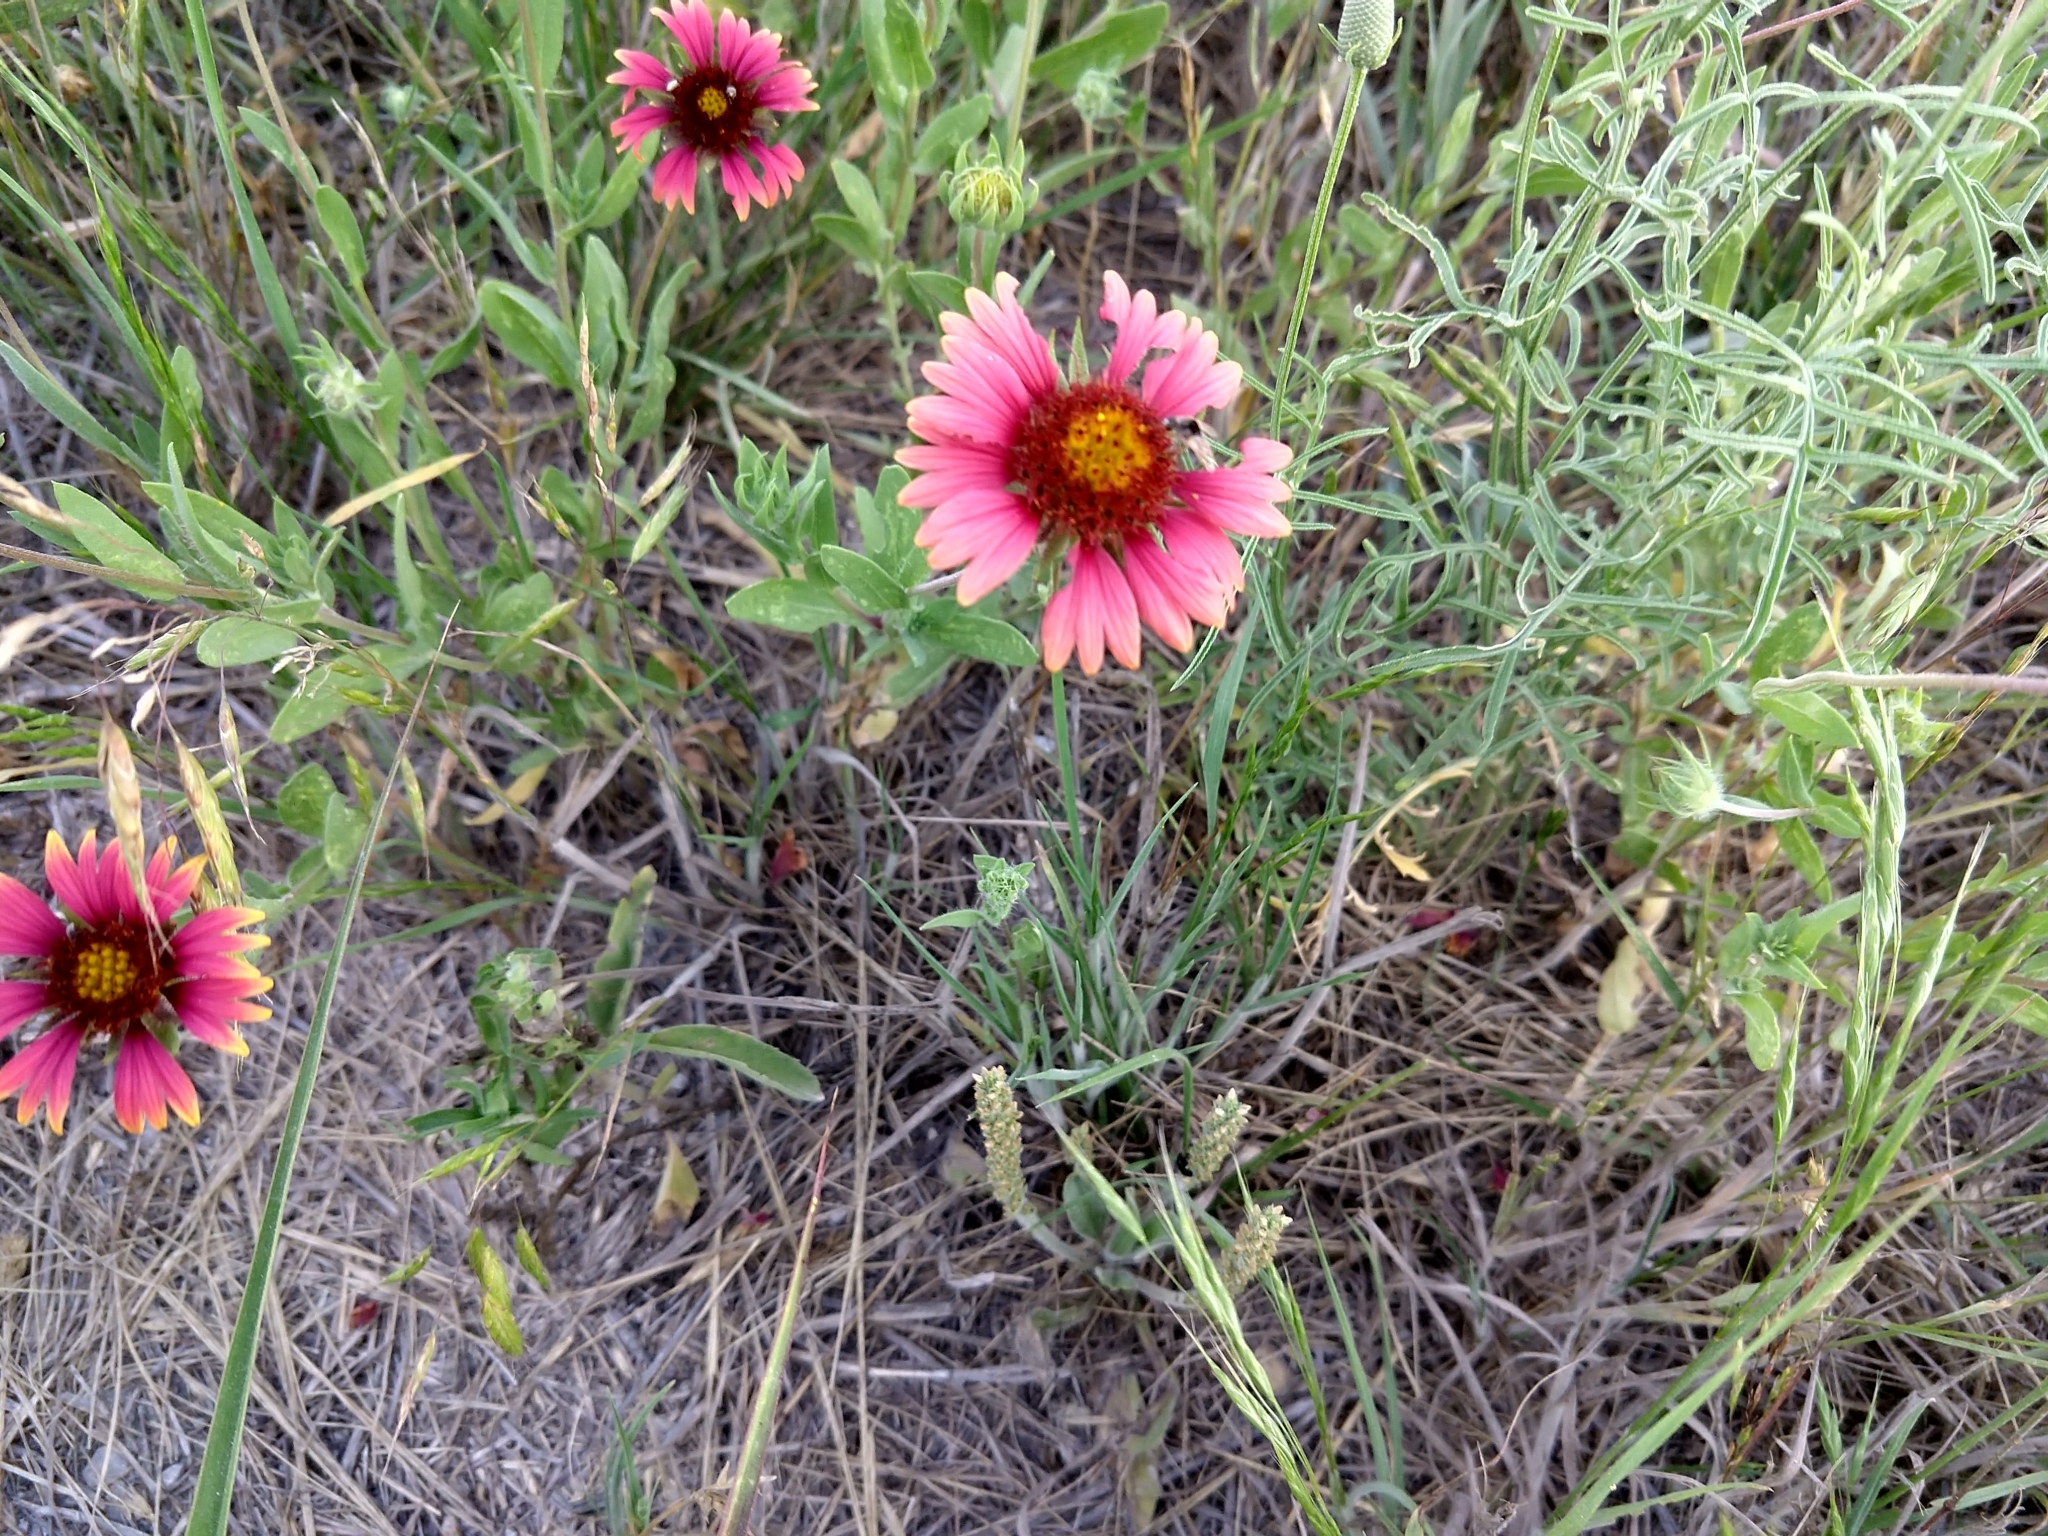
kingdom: Plantae
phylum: Tracheophyta
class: Magnoliopsida
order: Asterales
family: Asteraceae
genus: Gaillardia
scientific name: Gaillardia pulchella
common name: Firewheel
